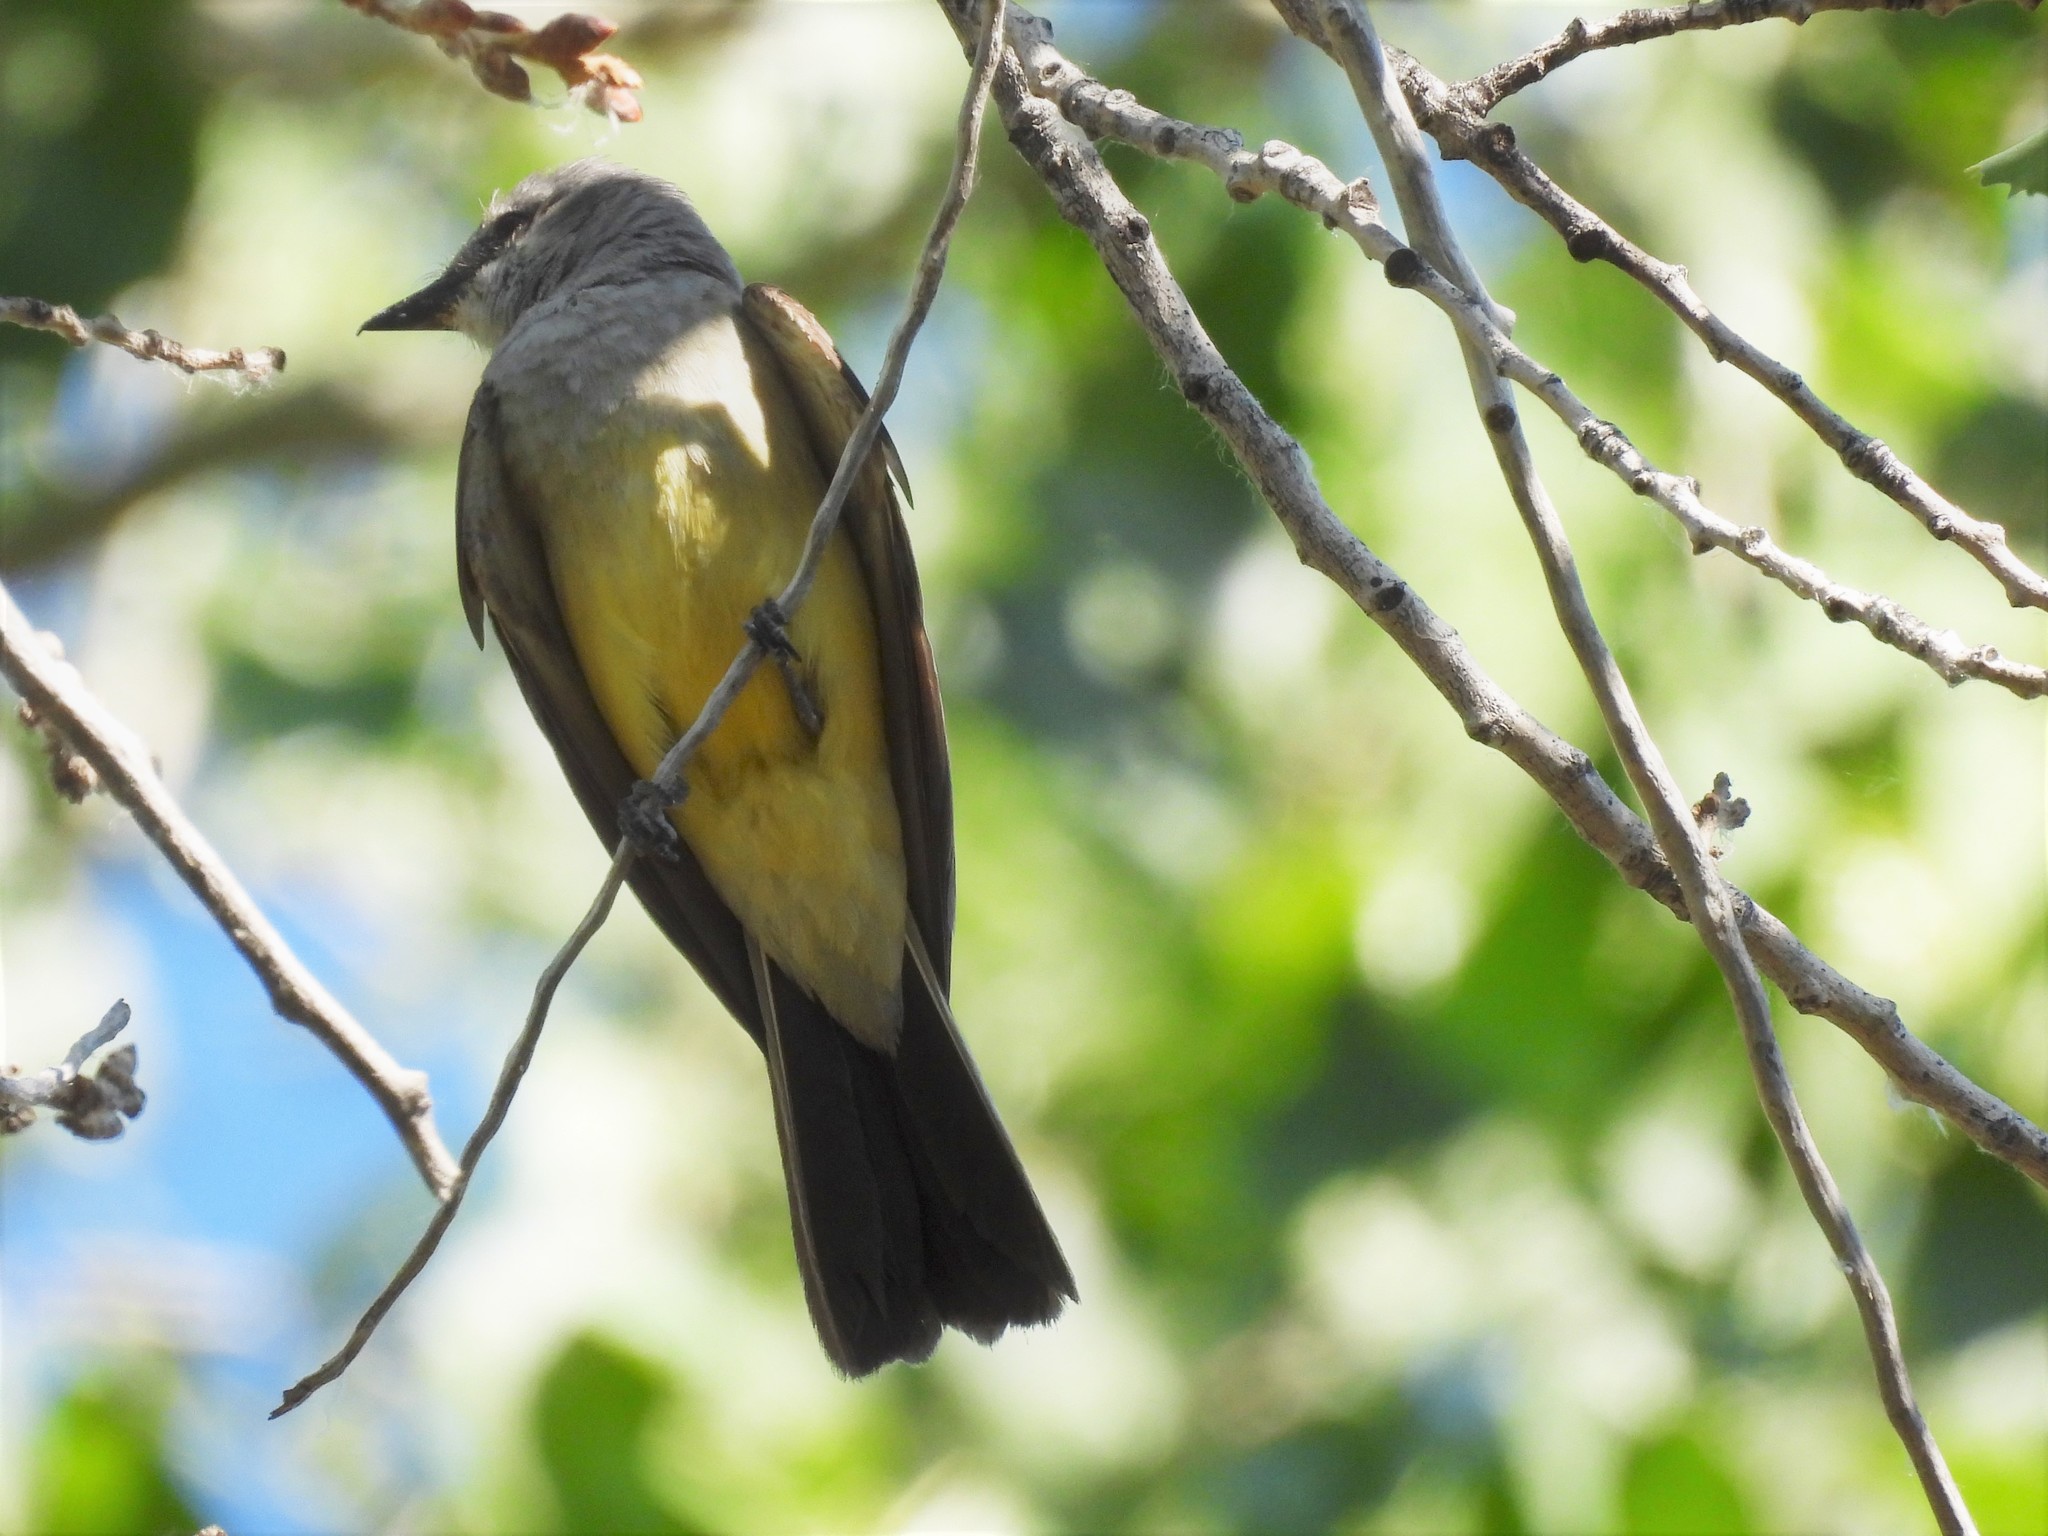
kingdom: Animalia
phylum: Chordata
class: Aves
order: Passeriformes
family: Tyrannidae
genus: Tyrannus
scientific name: Tyrannus verticalis
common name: Western kingbird
